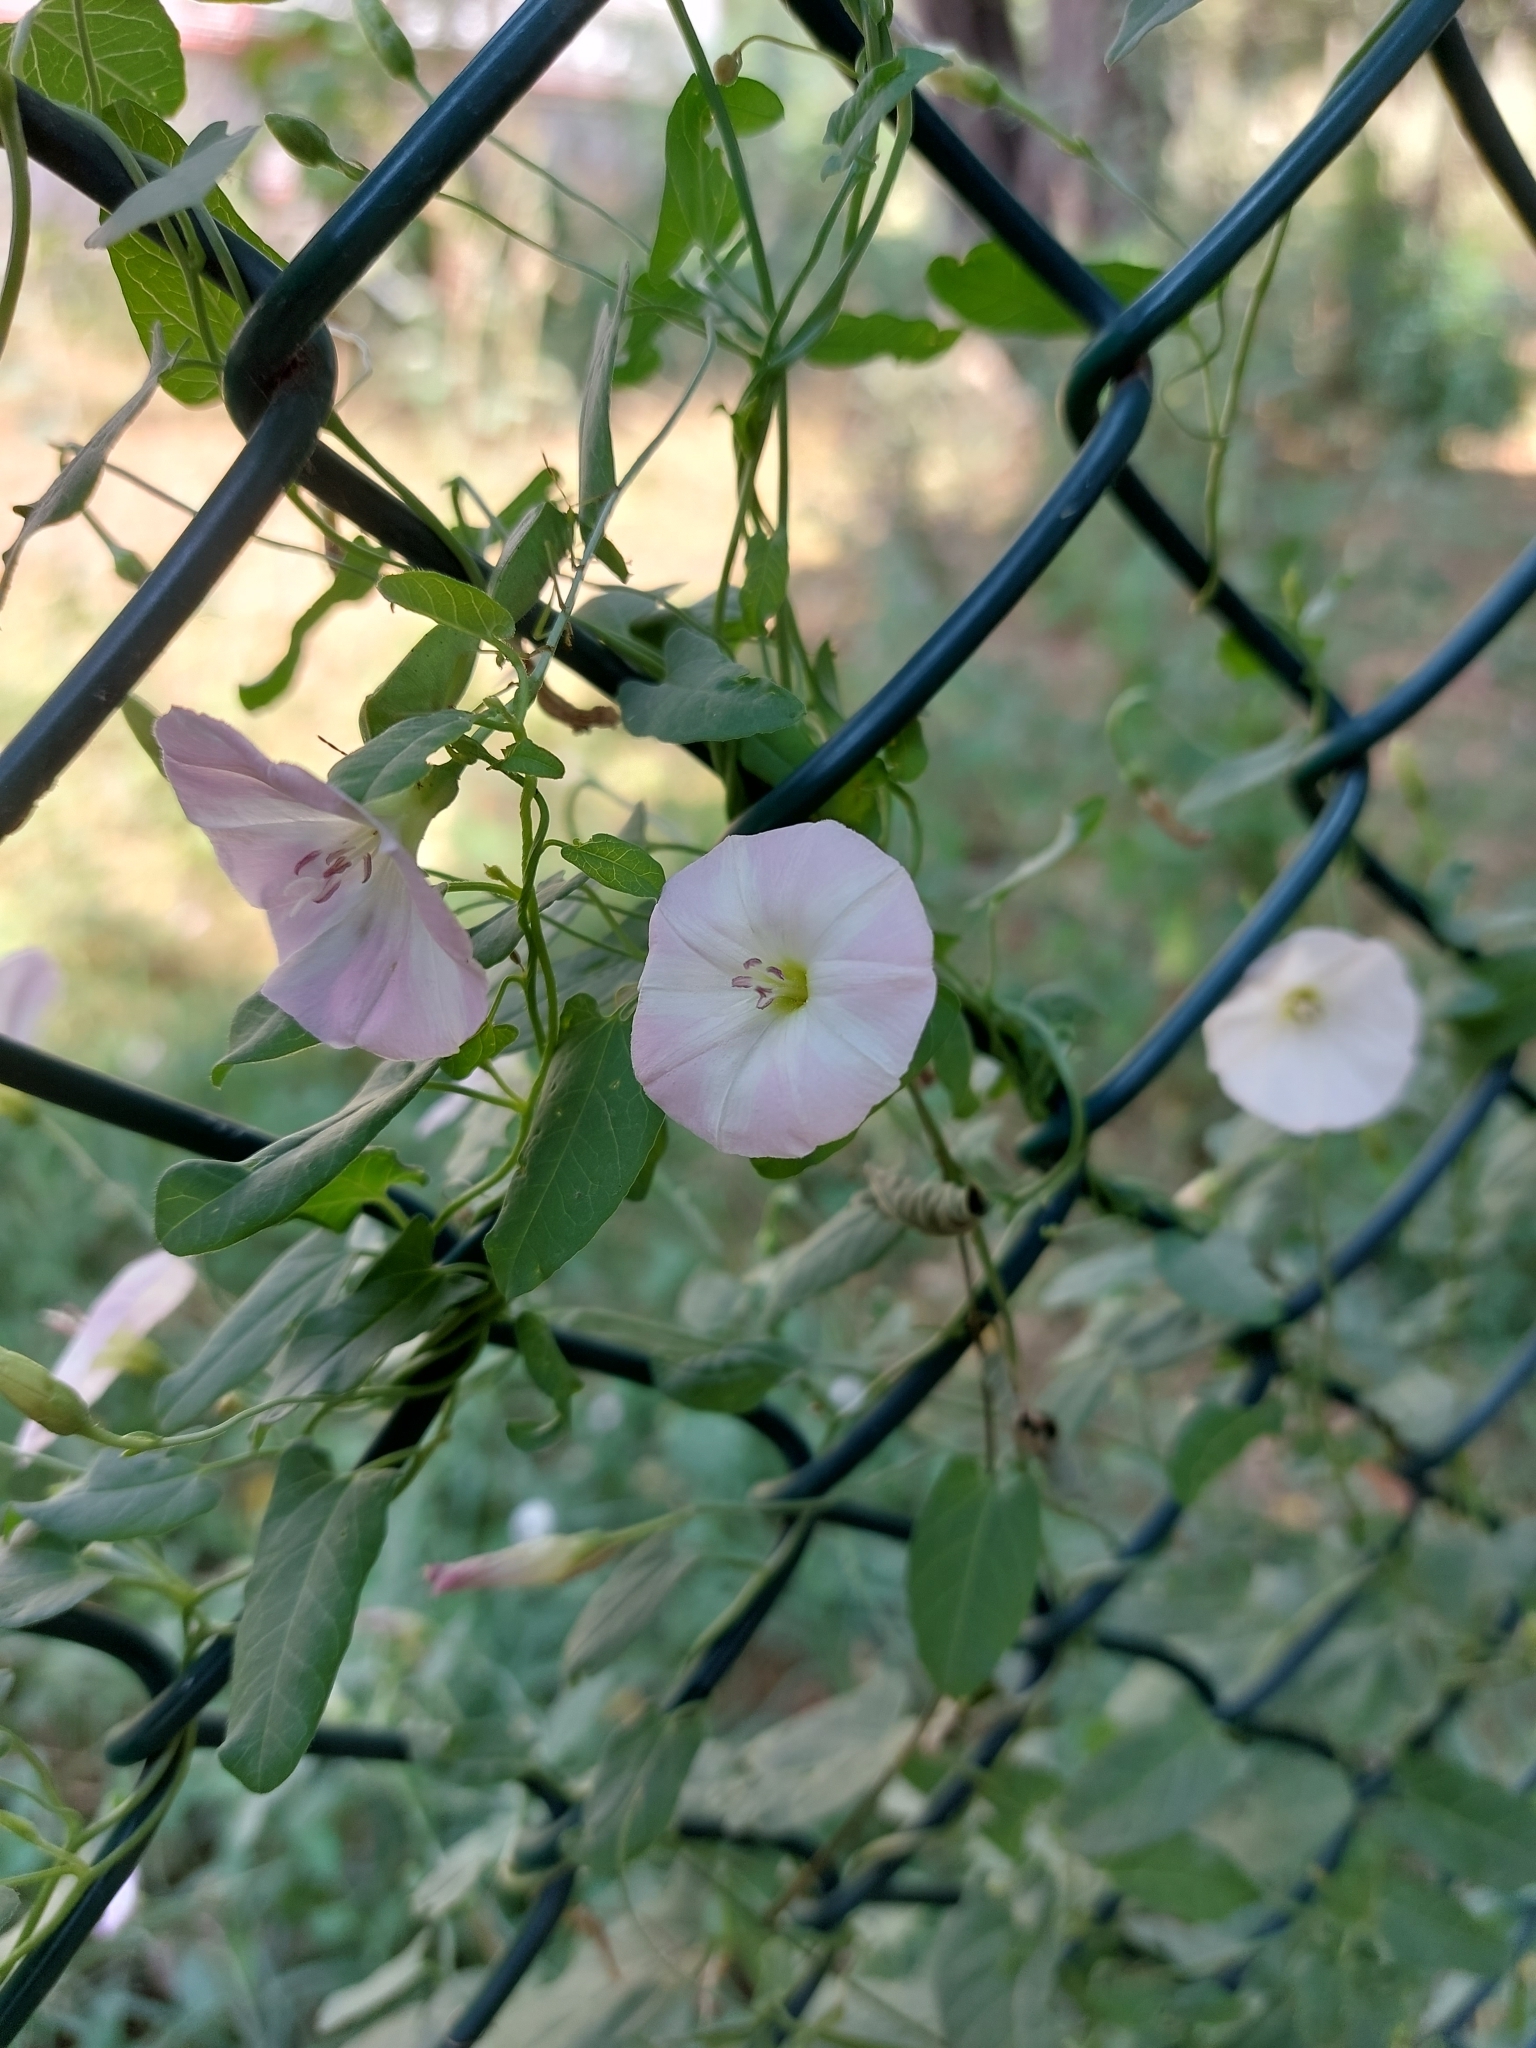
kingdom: Plantae
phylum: Tracheophyta
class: Magnoliopsida
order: Solanales
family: Convolvulaceae
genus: Convolvulus
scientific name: Convolvulus arvensis
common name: Field bindweed
